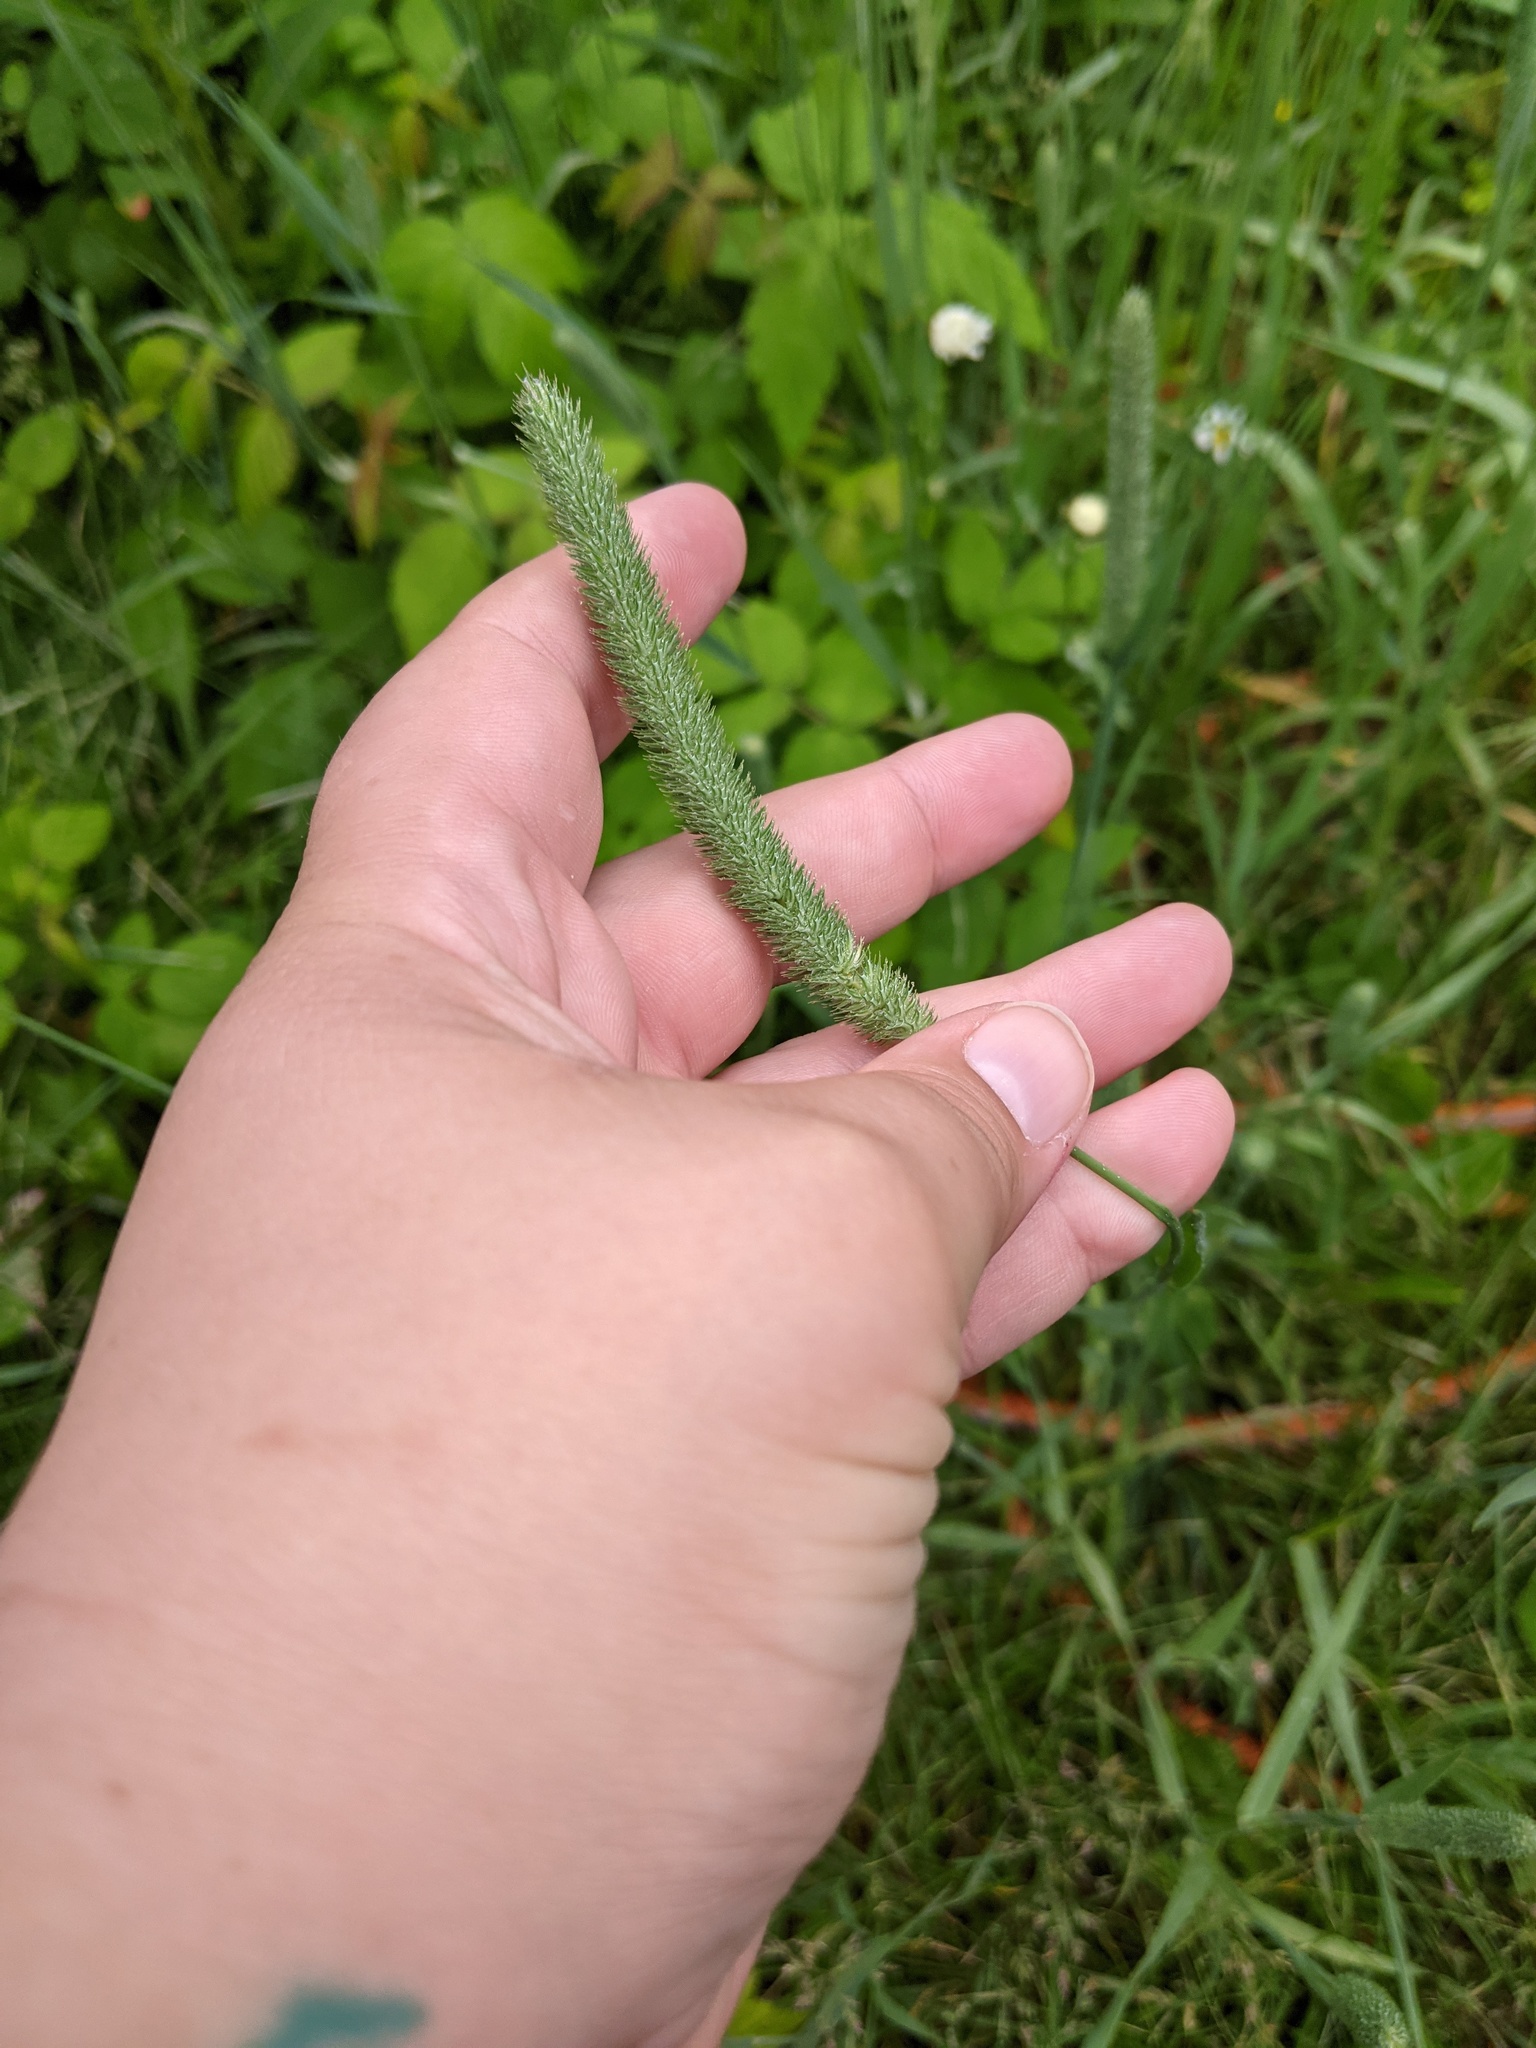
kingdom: Plantae
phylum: Tracheophyta
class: Liliopsida
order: Poales
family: Poaceae
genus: Phleum
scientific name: Phleum pratense
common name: Timothy grass
